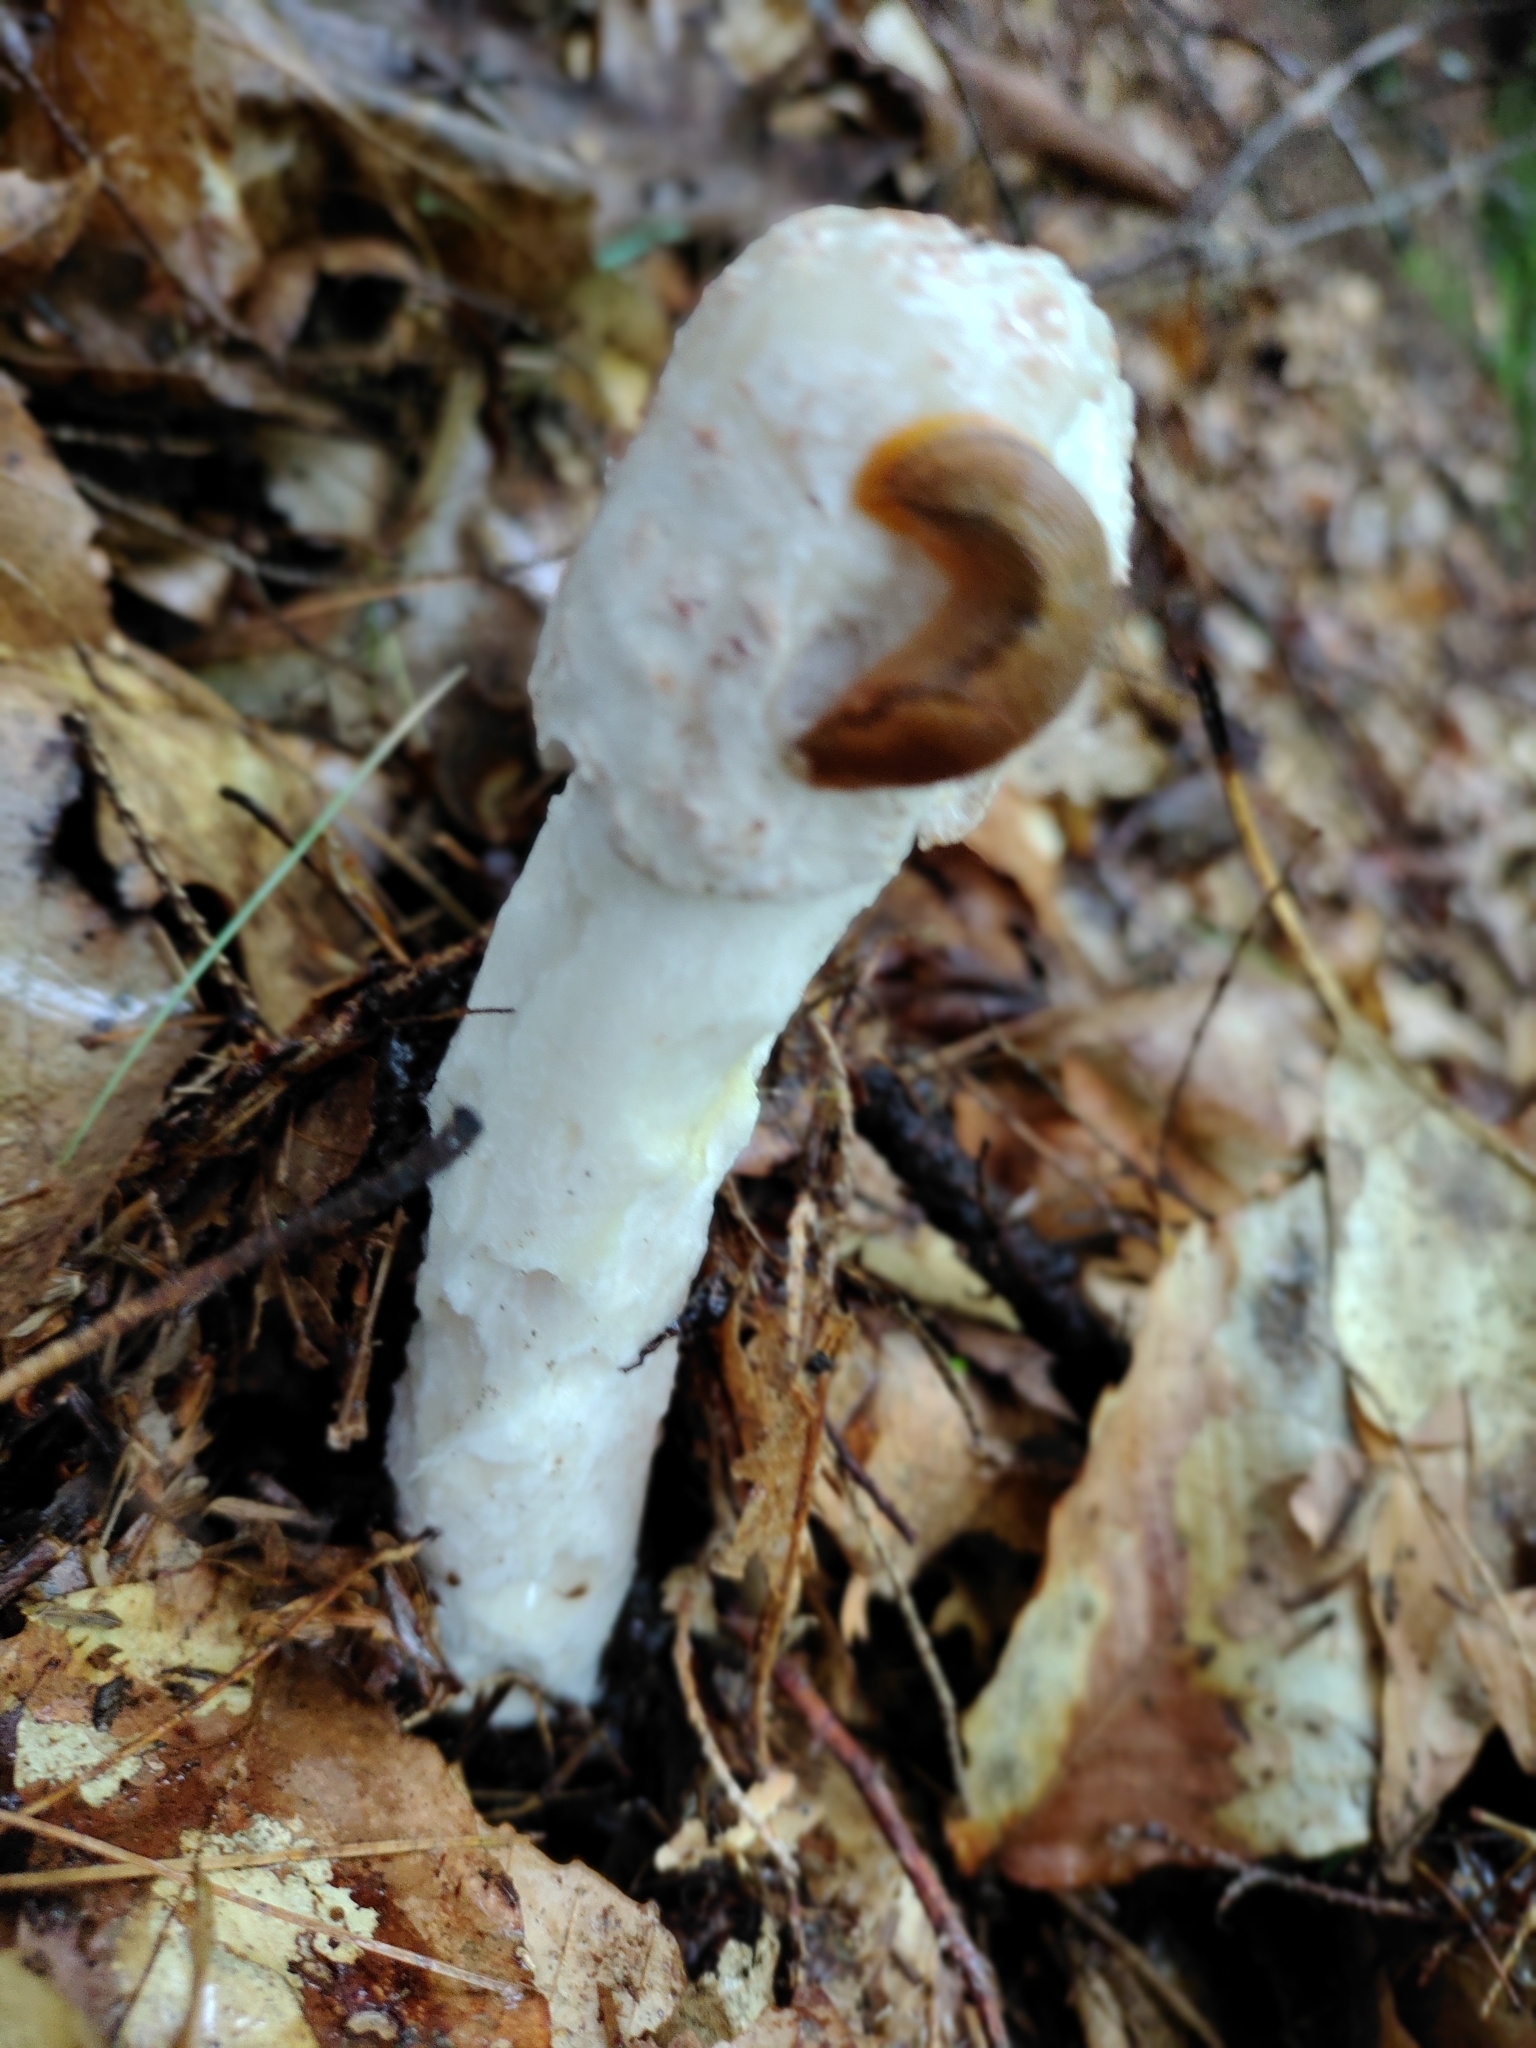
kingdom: Fungi
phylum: Ascomycota
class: Sordariomycetes
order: Hypocreales
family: Hypocreaceae
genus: Hypomyces
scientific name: Hypomyces hyalinus
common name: Amanita mold
